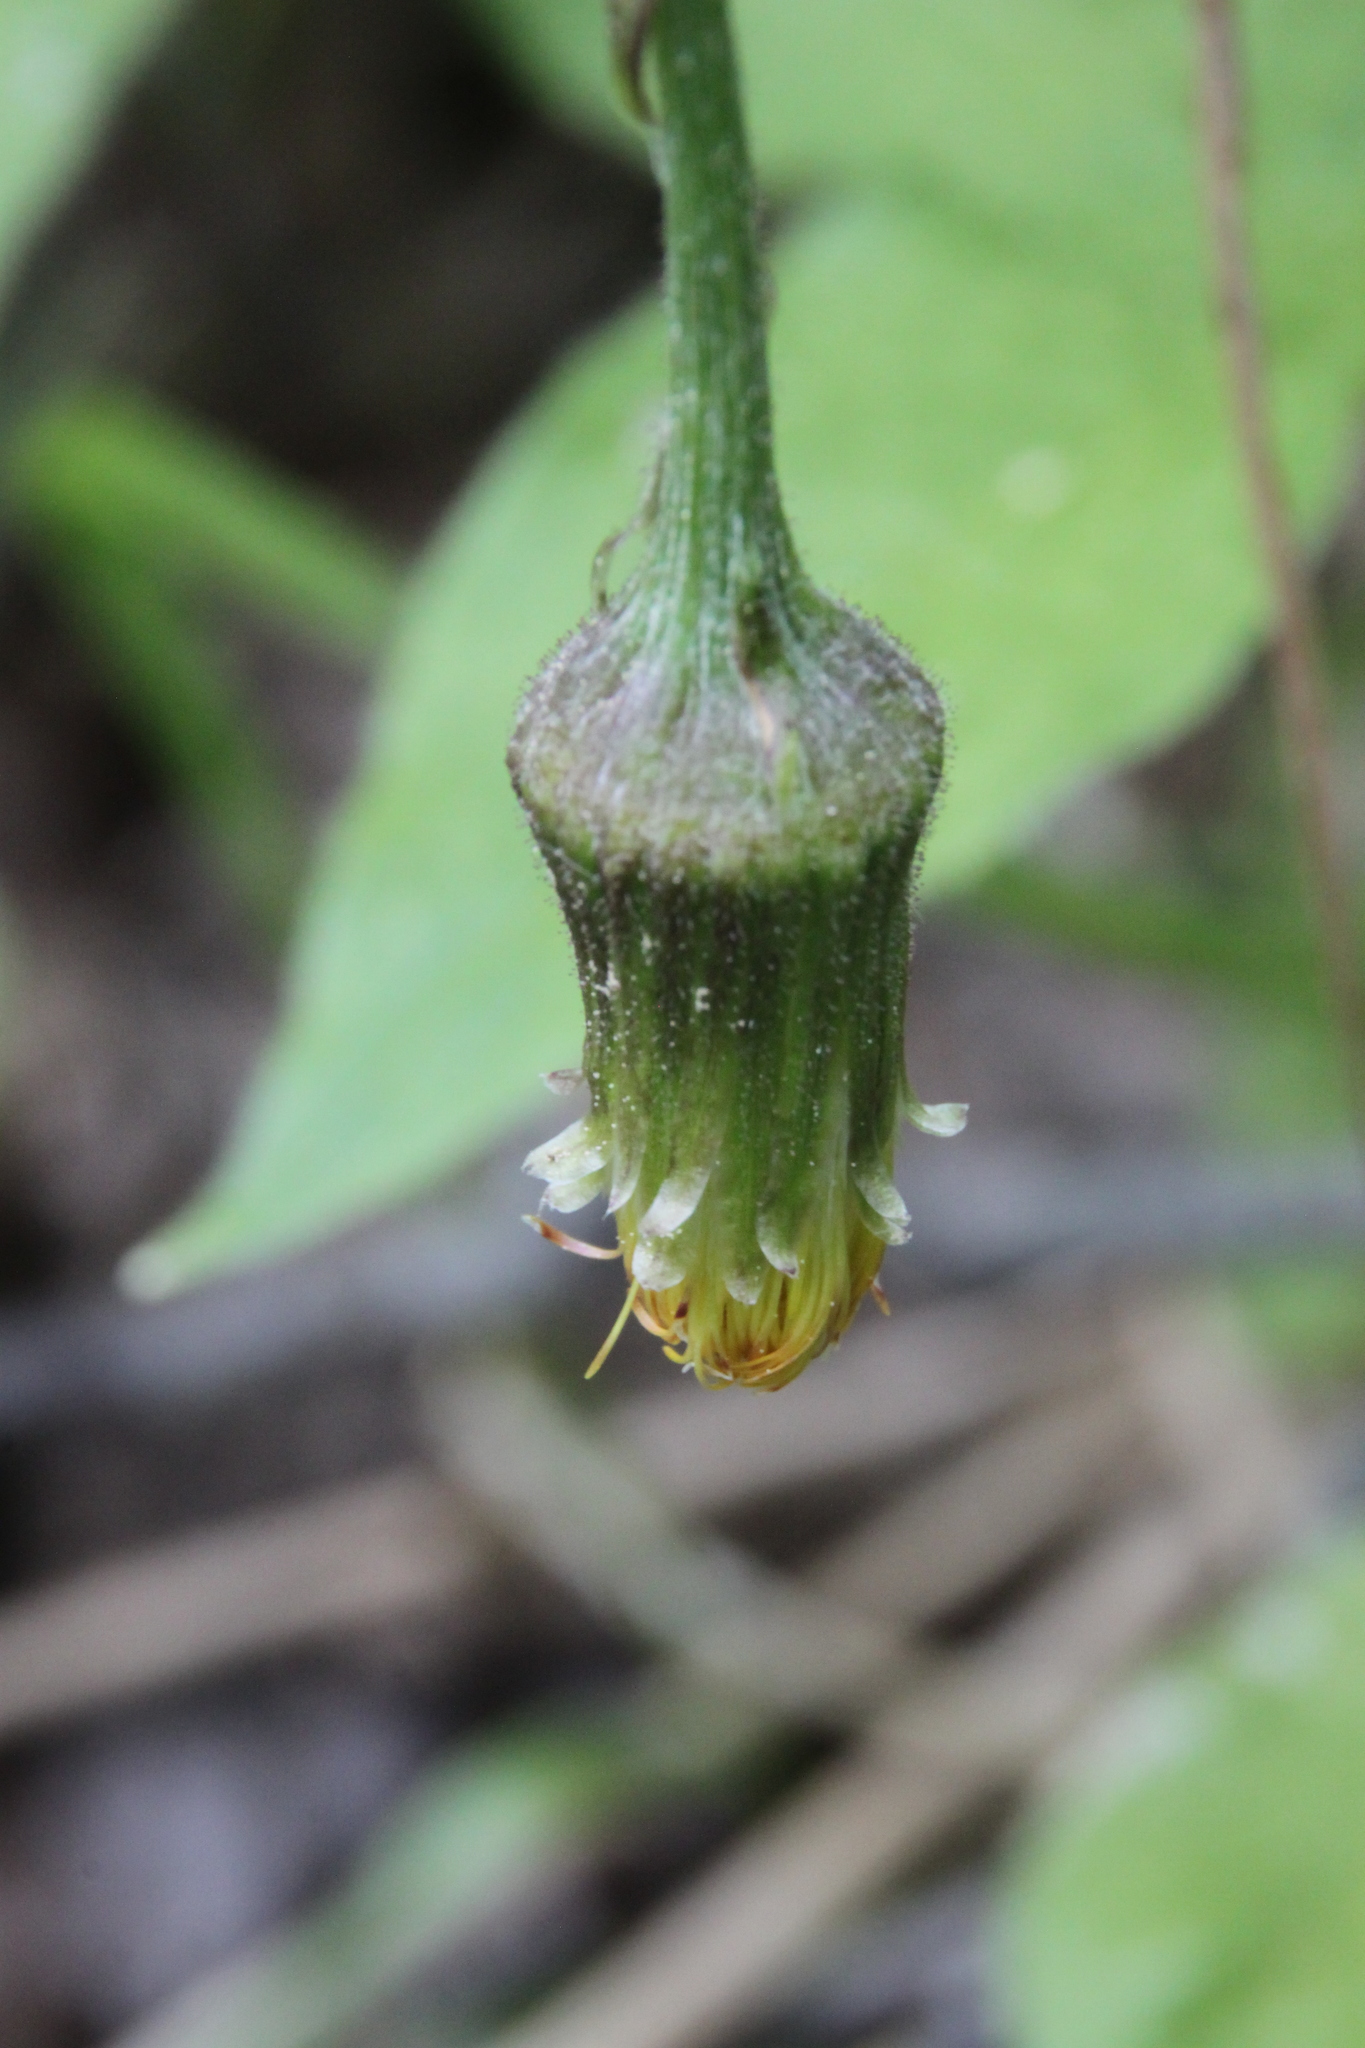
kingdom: Plantae
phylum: Tracheophyta
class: Magnoliopsida
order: Asterales
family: Asteraceae
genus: Tussilago
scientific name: Tussilago farfara
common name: Coltsfoot
